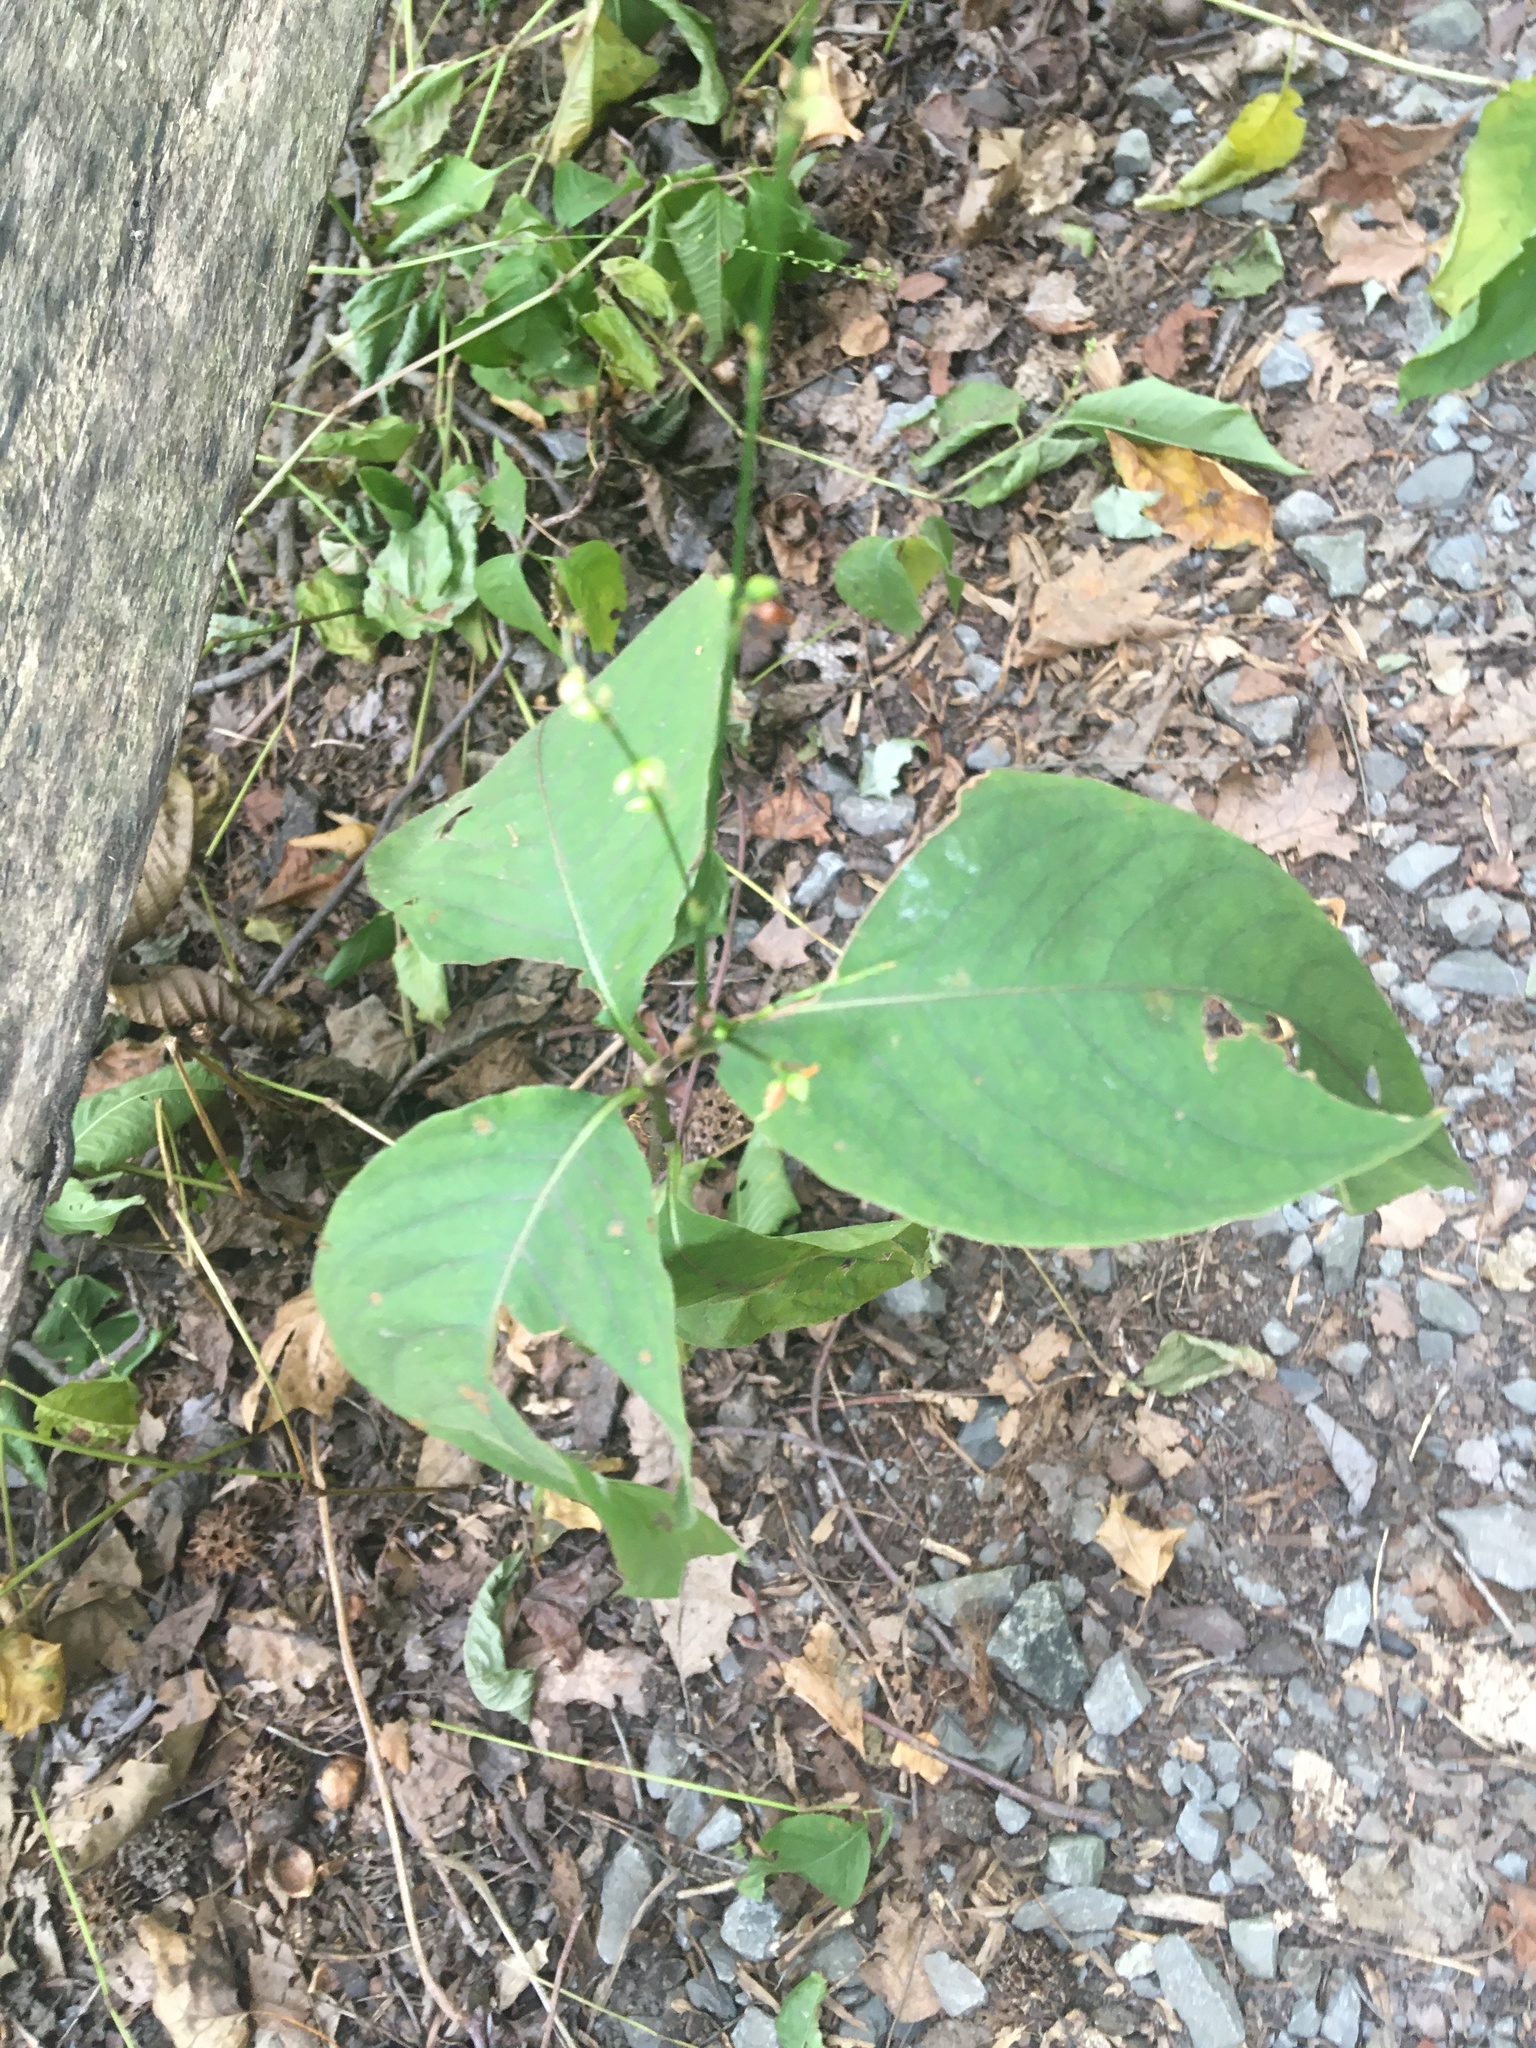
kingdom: Plantae
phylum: Tracheophyta
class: Magnoliopsida
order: Caryophyllales
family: Polygonaceae
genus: Persicaria
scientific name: Persicaria virginiana
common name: Jumpseed
